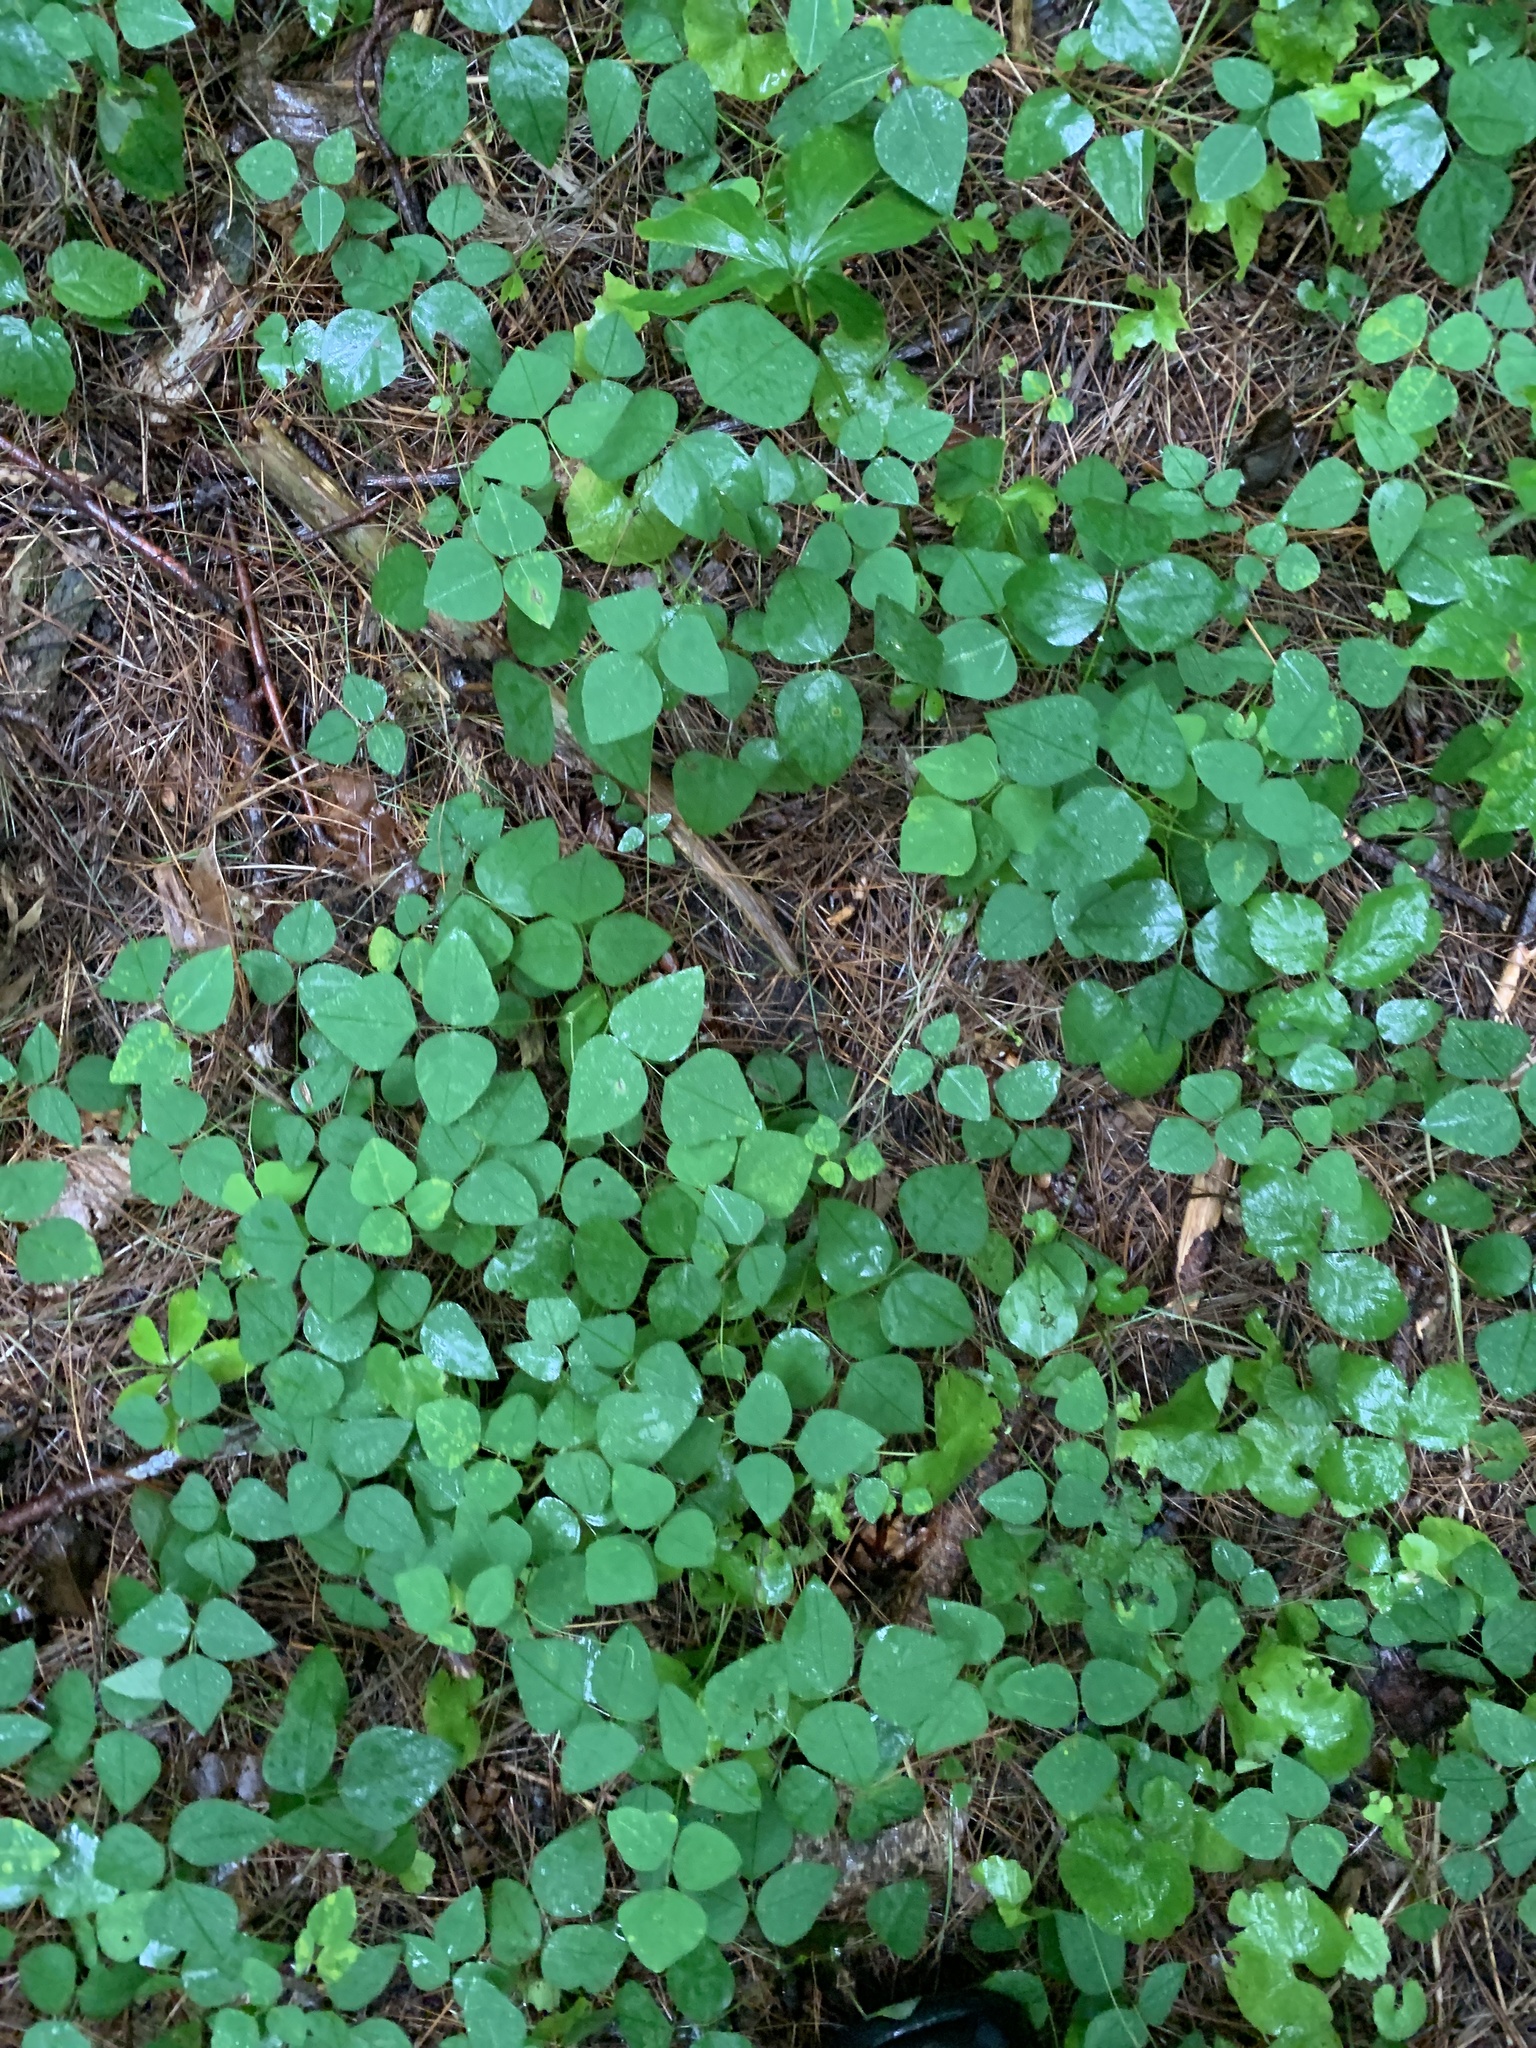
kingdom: Plantae
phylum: Tracheophyta
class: Magnoliopsida
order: Fabales
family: Fabaceae
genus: Amphicarpaea
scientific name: Amphicarpaea bracteata
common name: American hog peanut
